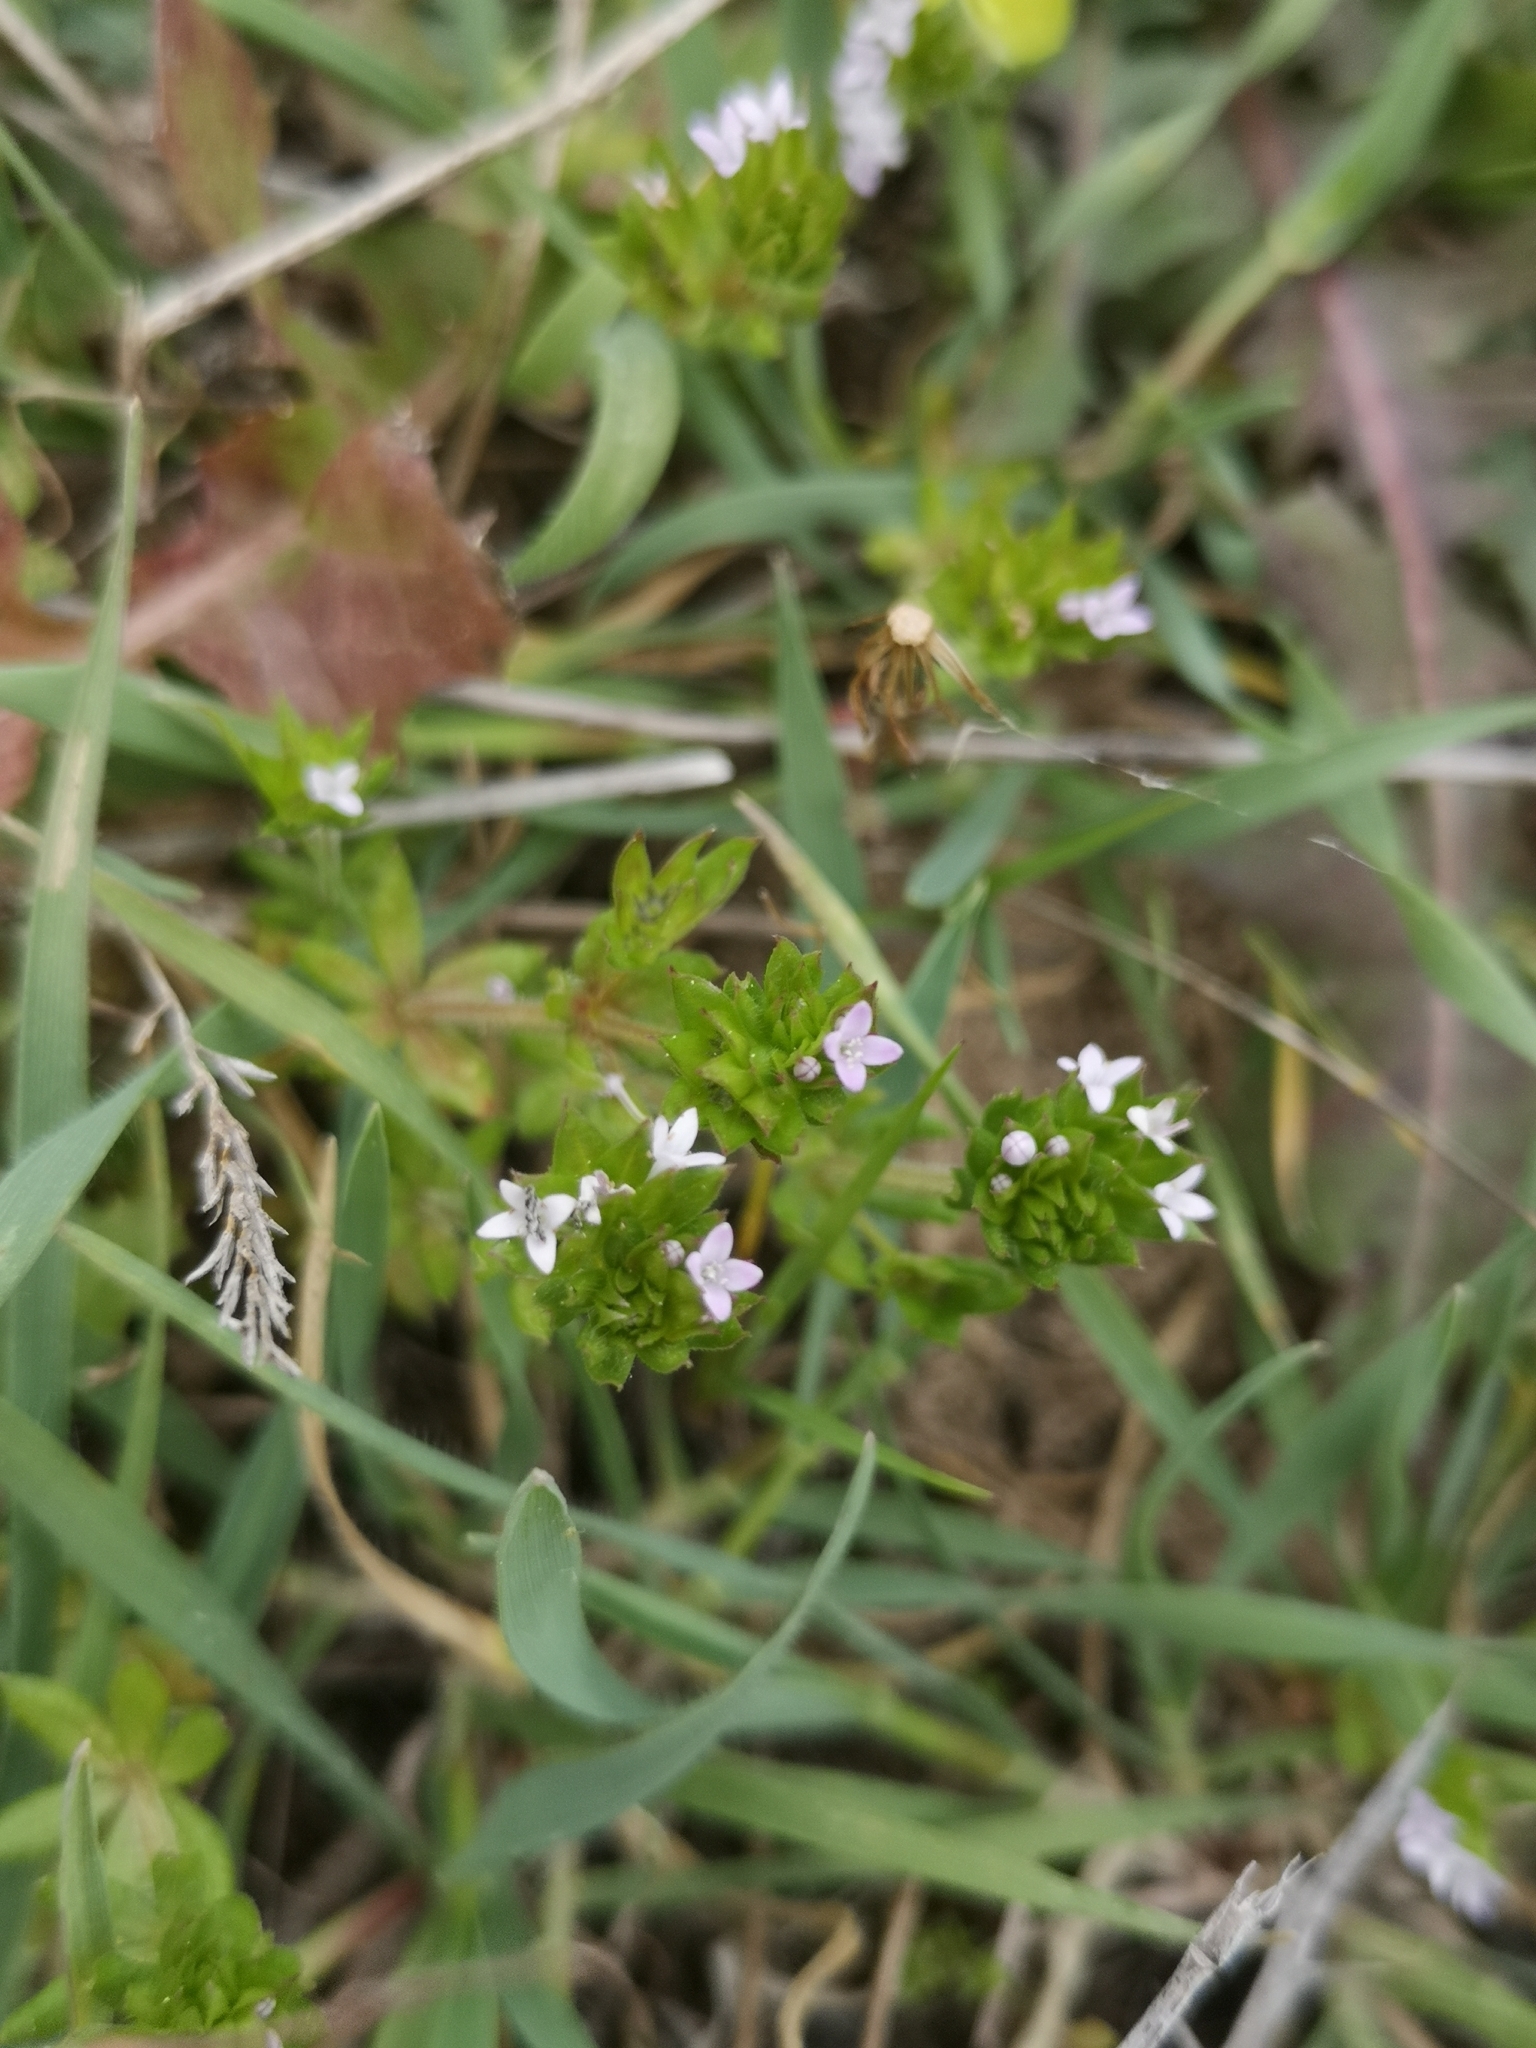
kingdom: Plantae
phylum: Tracheophyta
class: Magnoliopsida
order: Gentianales
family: Rubiaceae
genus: Sherardia
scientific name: Sherardia arvensis
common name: Field madder
